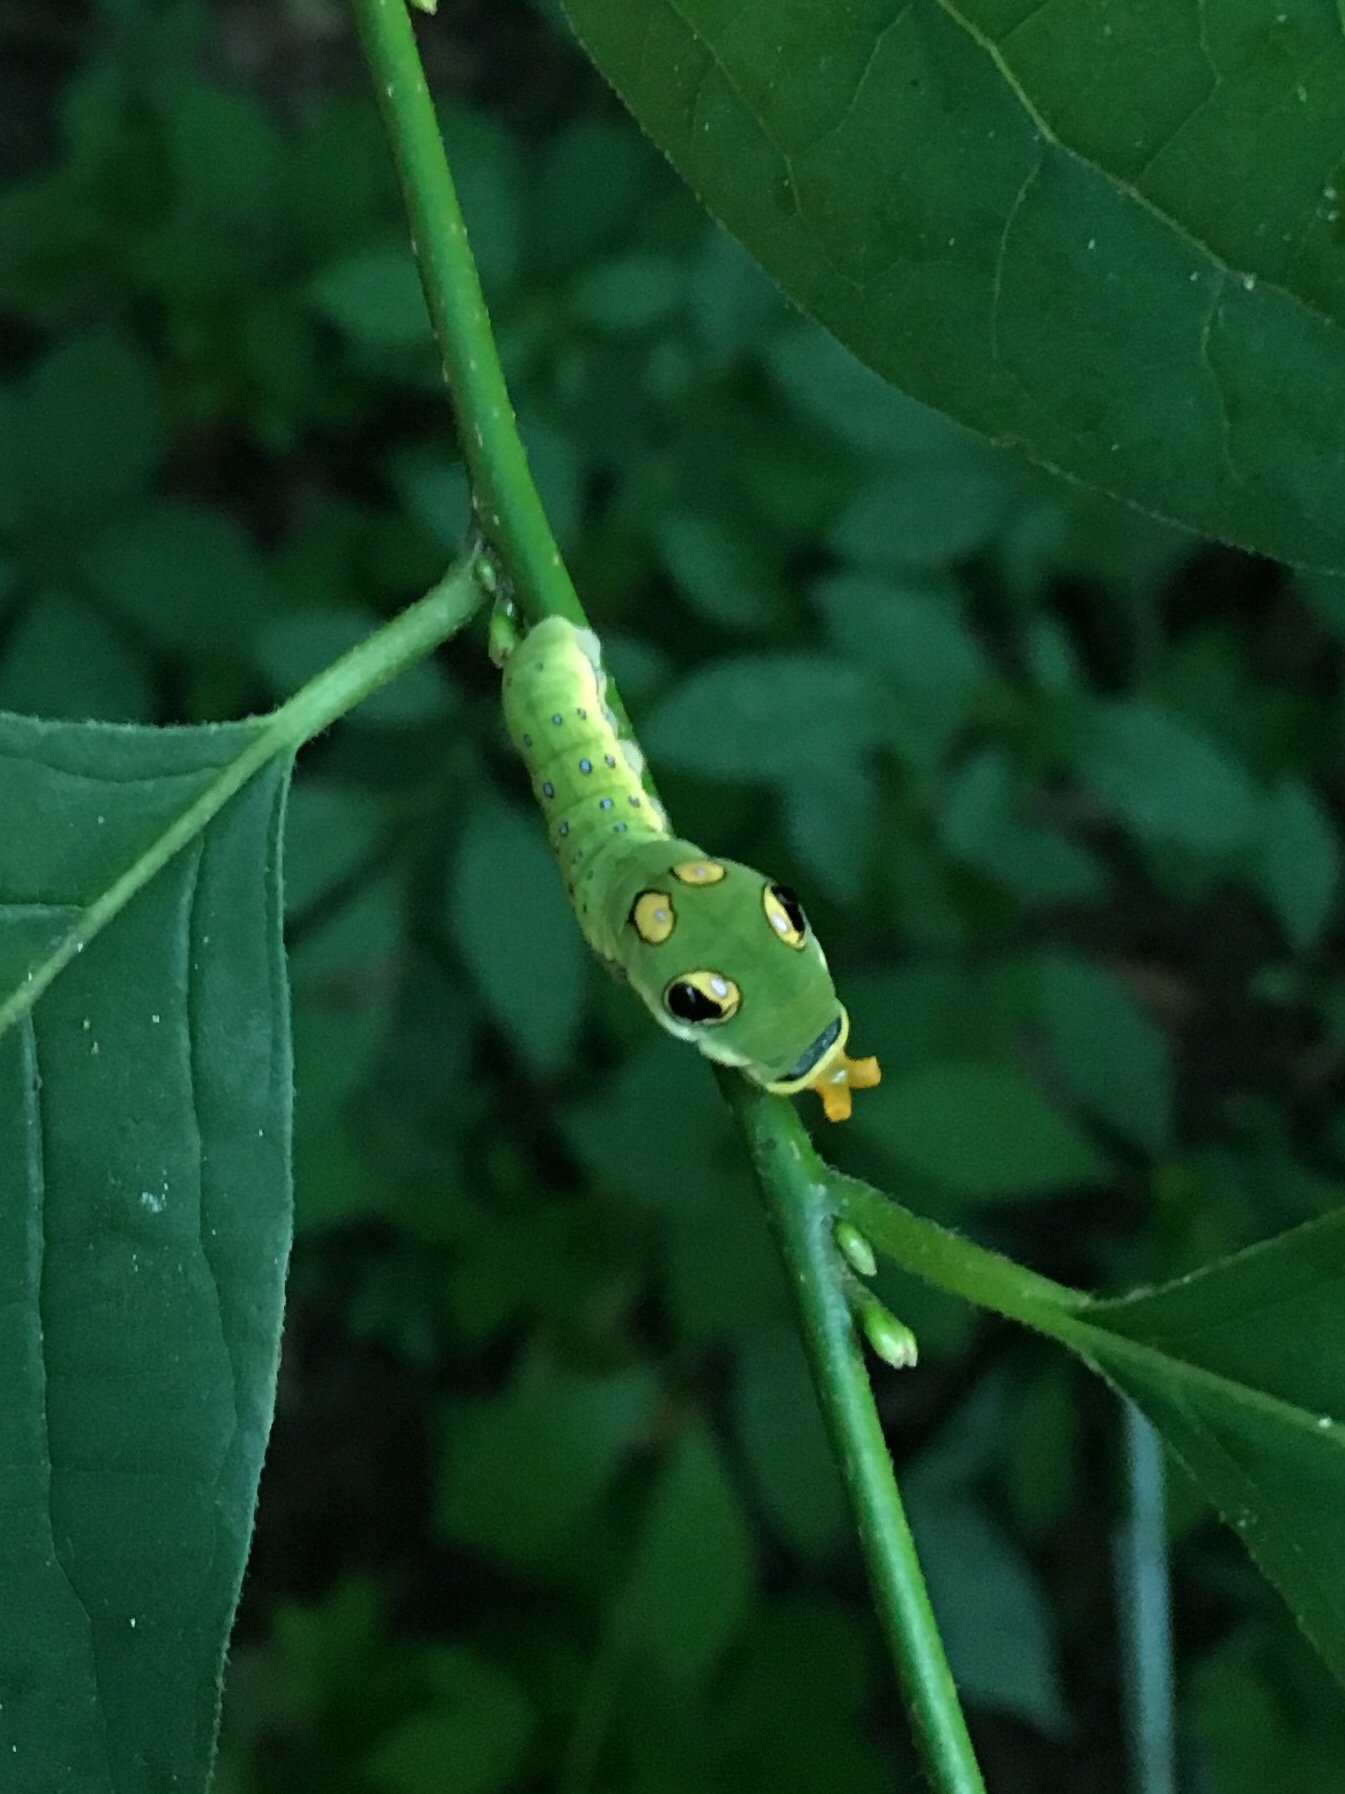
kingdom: Animalia
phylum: Arthropoda
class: Insecta
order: Lepidoptera
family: Papilionidae
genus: Papilio
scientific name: Papilio troilus
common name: Spicebush swallowtail
